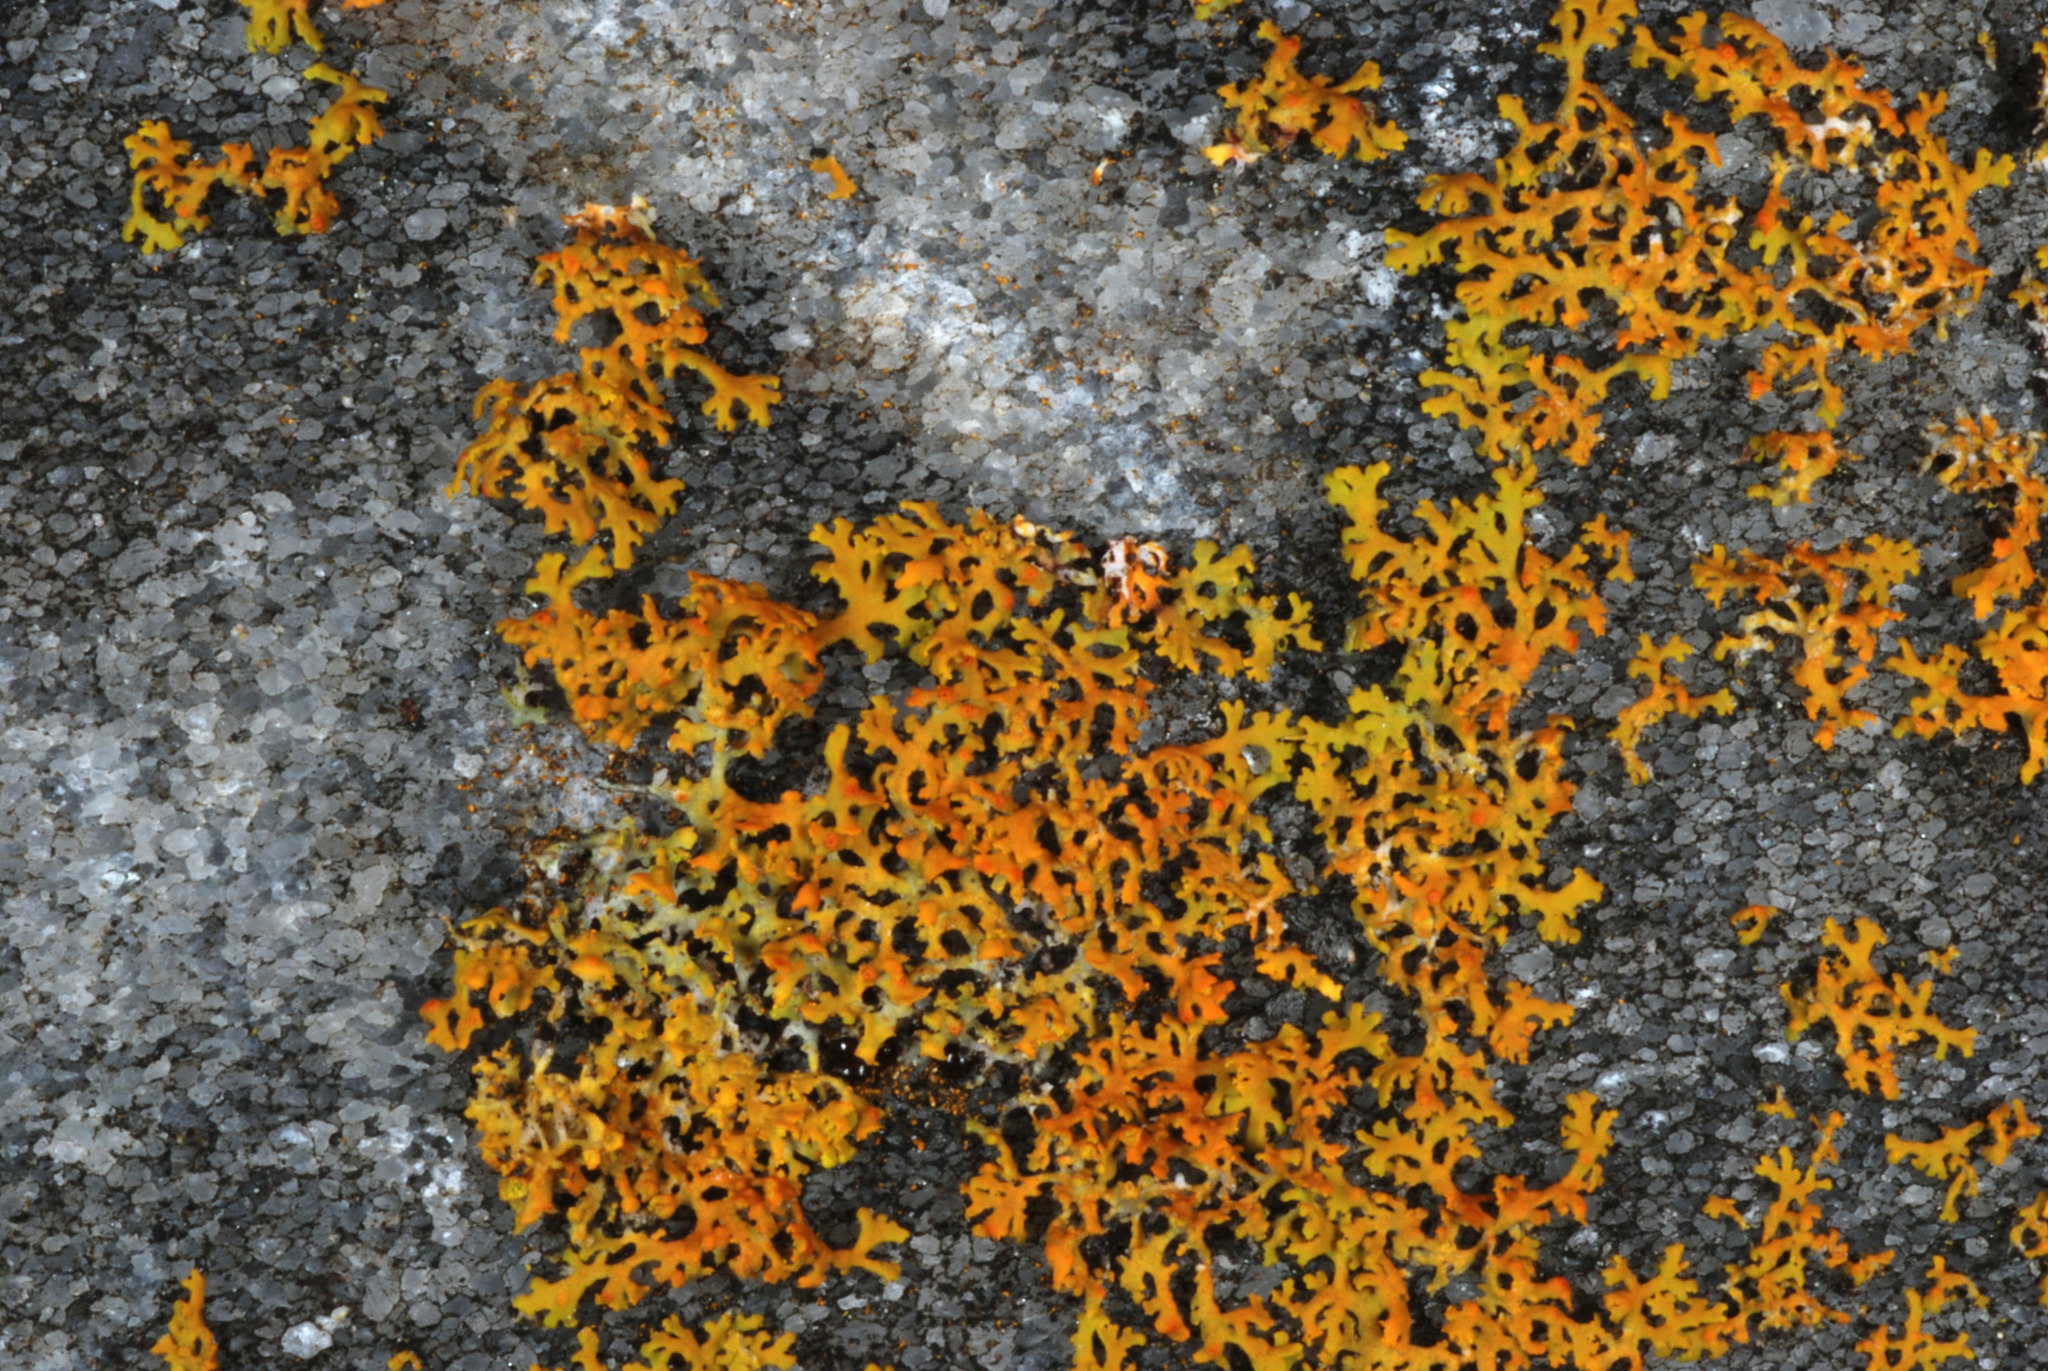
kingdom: Fungi
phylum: Ascomycota
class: Lecanoromycetes
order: Teloschistales
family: Teloschistaceae
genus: Gallowayella
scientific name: Gallowayella weberi
